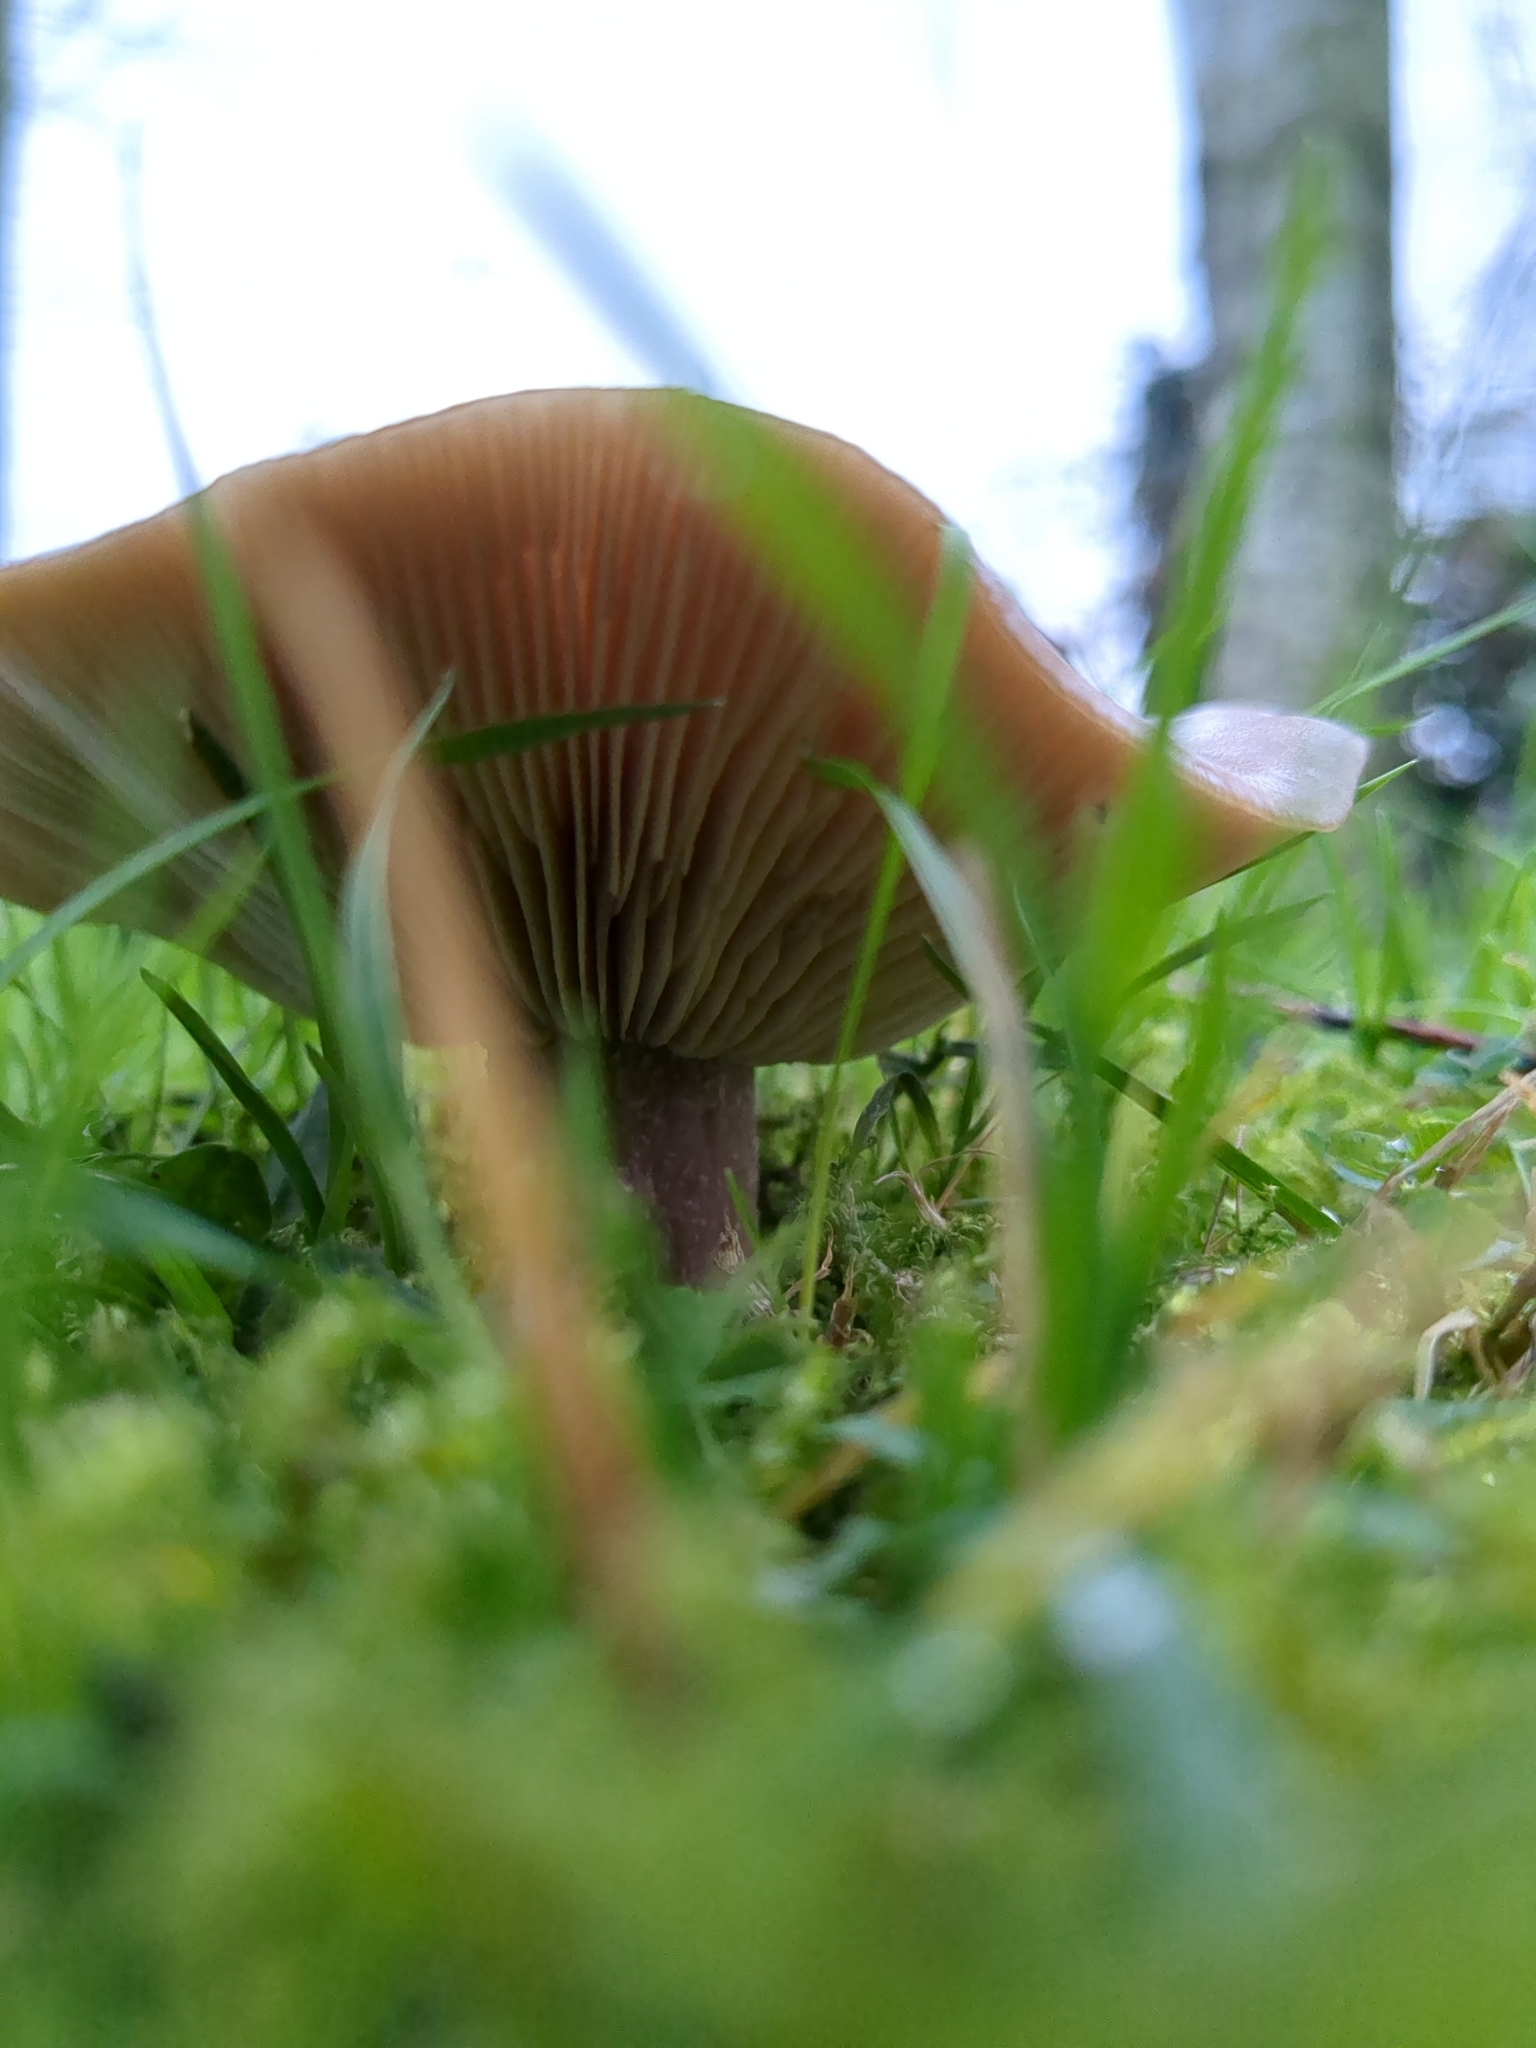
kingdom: Fungi
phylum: Basidiomycota
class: Agaricomycetes
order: Agaricales
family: Omphalotaceae
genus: Collybiopsis
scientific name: Collybiopsis peronata
